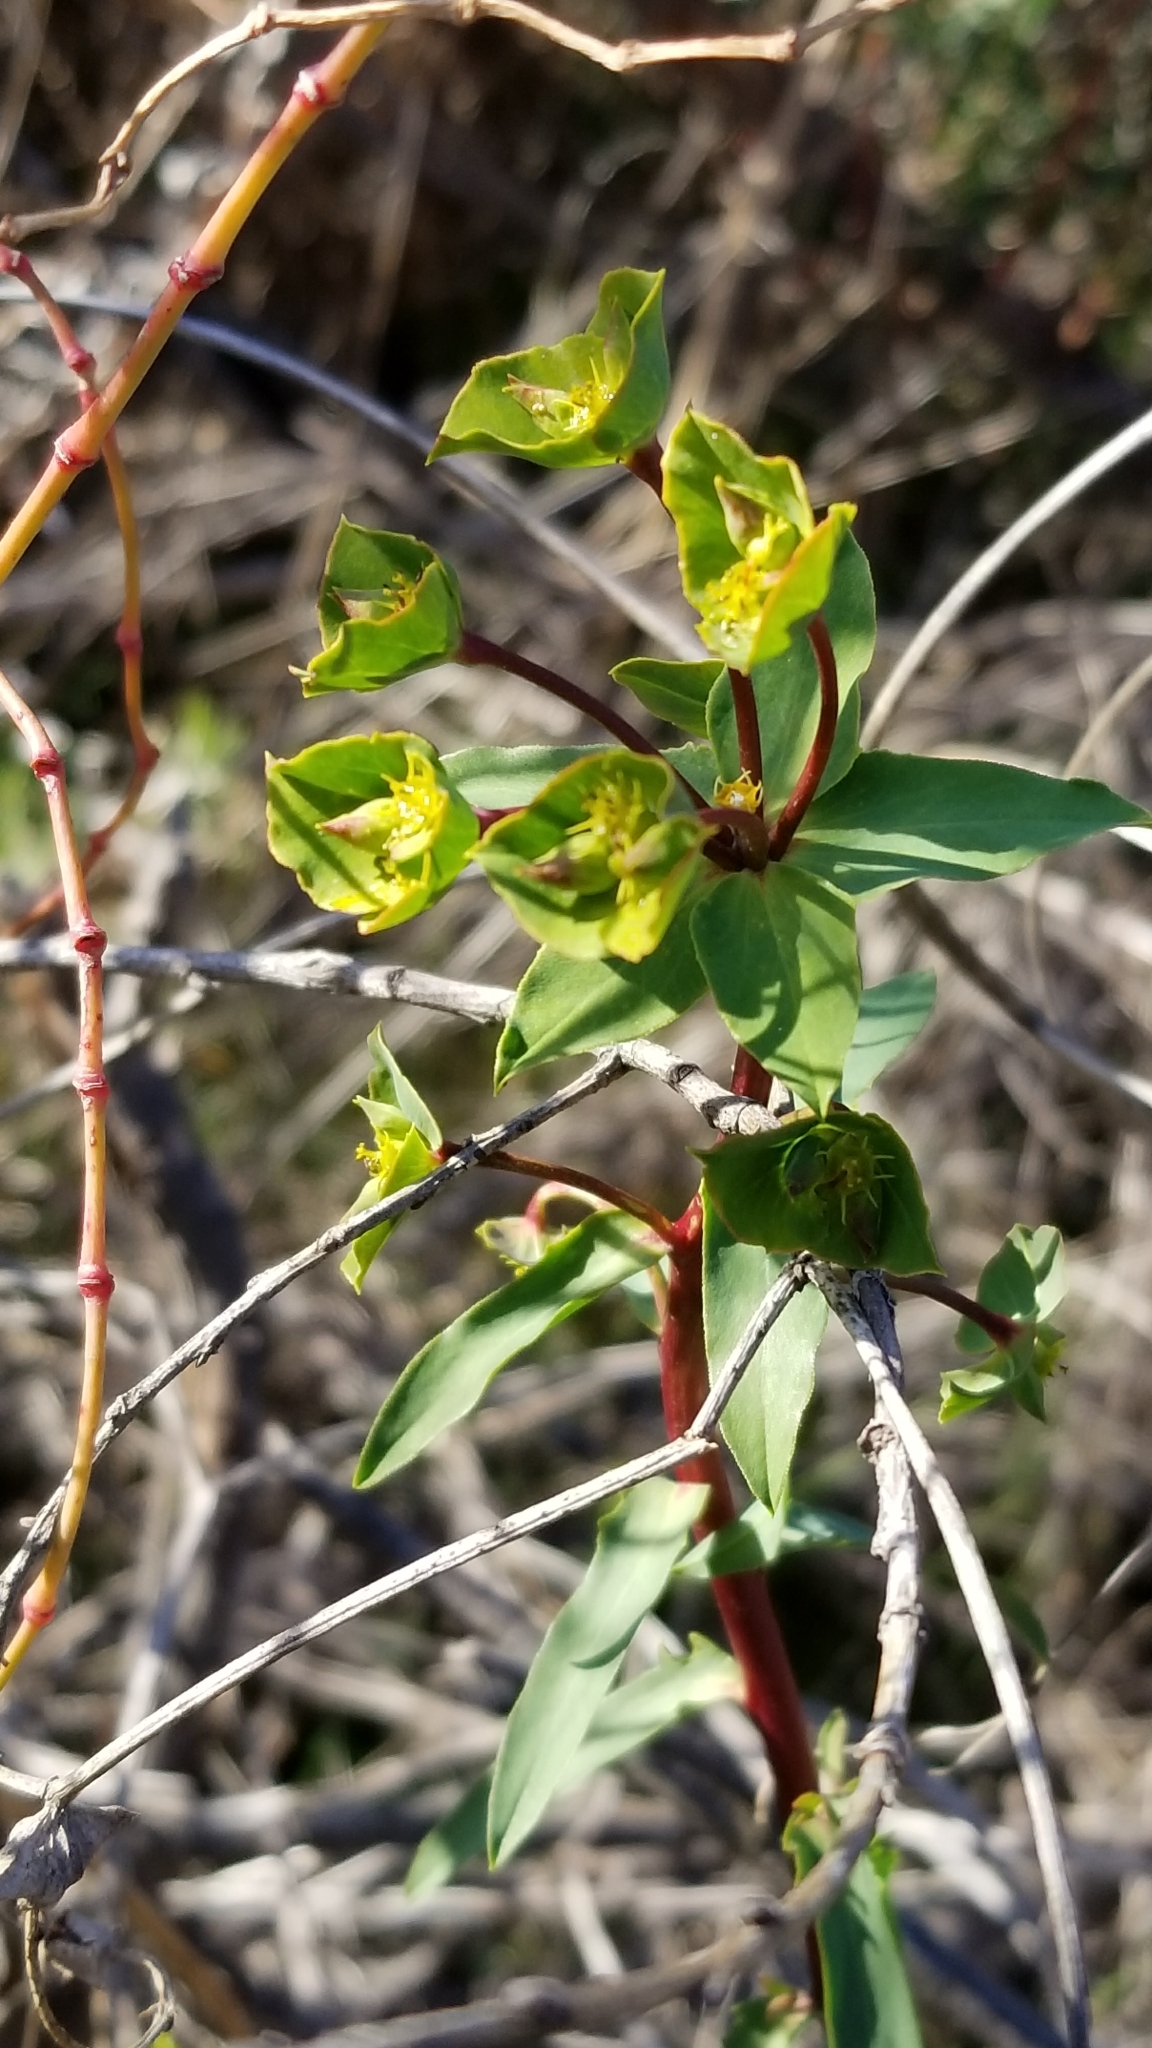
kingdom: Plantae
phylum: Tracheophyta
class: Magnoliopsida
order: Malpighiales
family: Euphorbiaceae
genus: Euphorbia
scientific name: Euphorbia terracina
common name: Geraldton carnation weed
